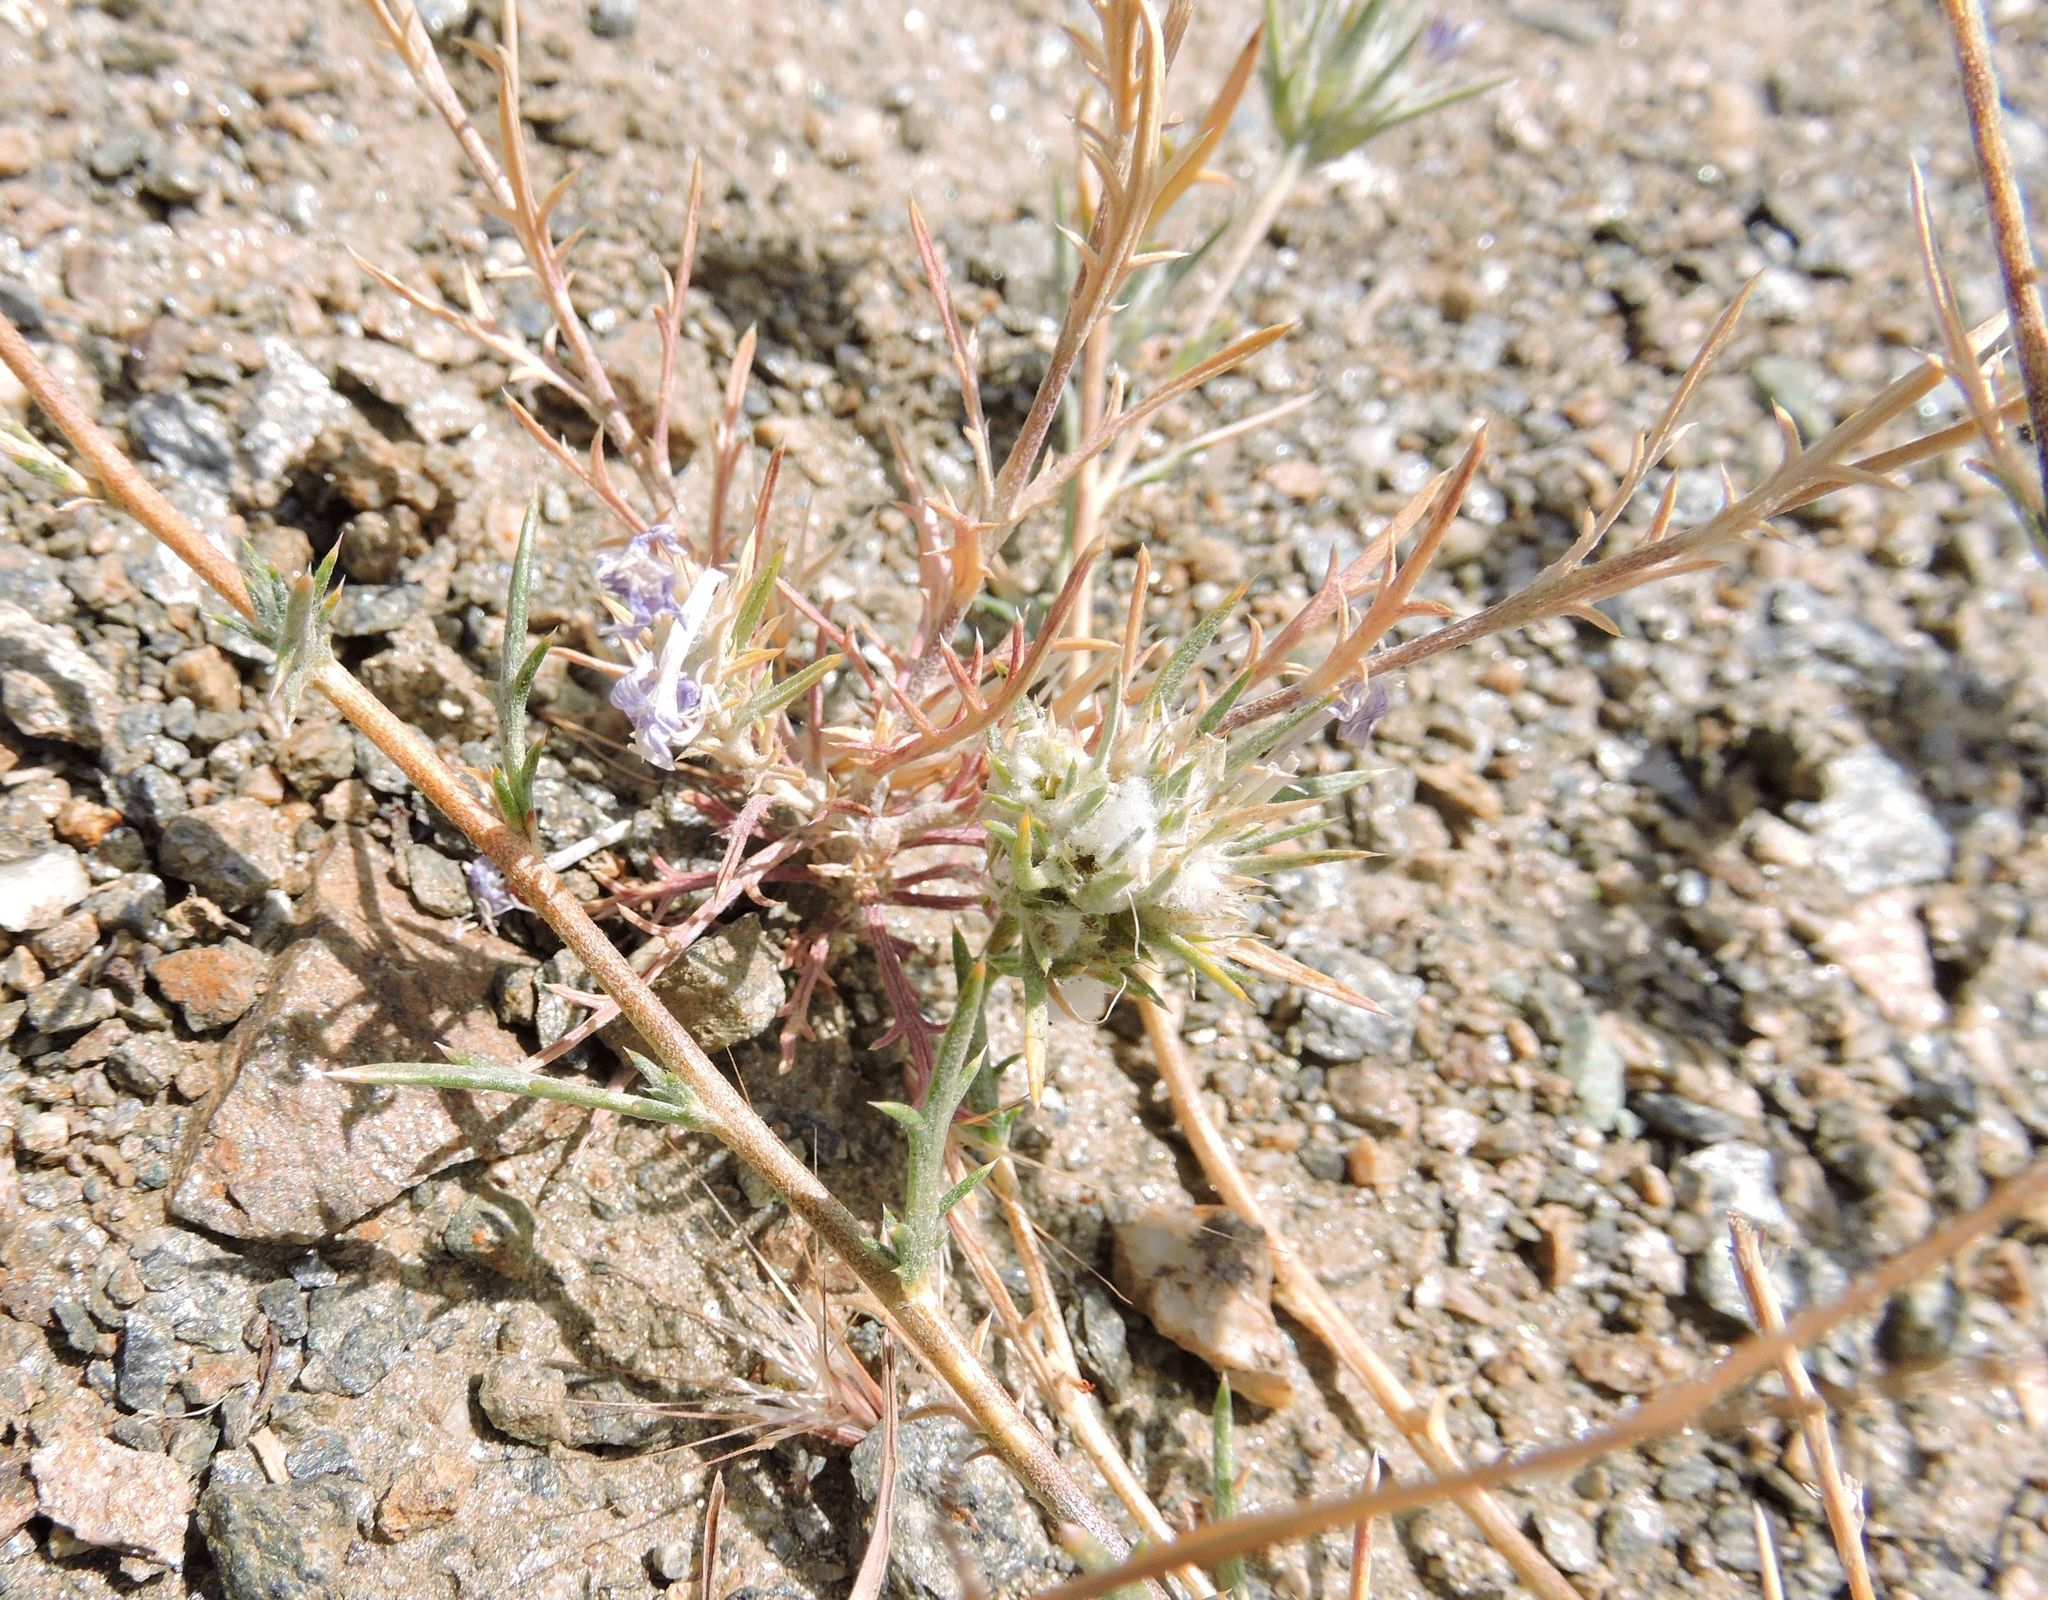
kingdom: Plantae
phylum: Tracheophyta
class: Magnoliopsida
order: Ericales
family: Polemoniaceae
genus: Eriastrum
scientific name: Eriastrum densifolium
